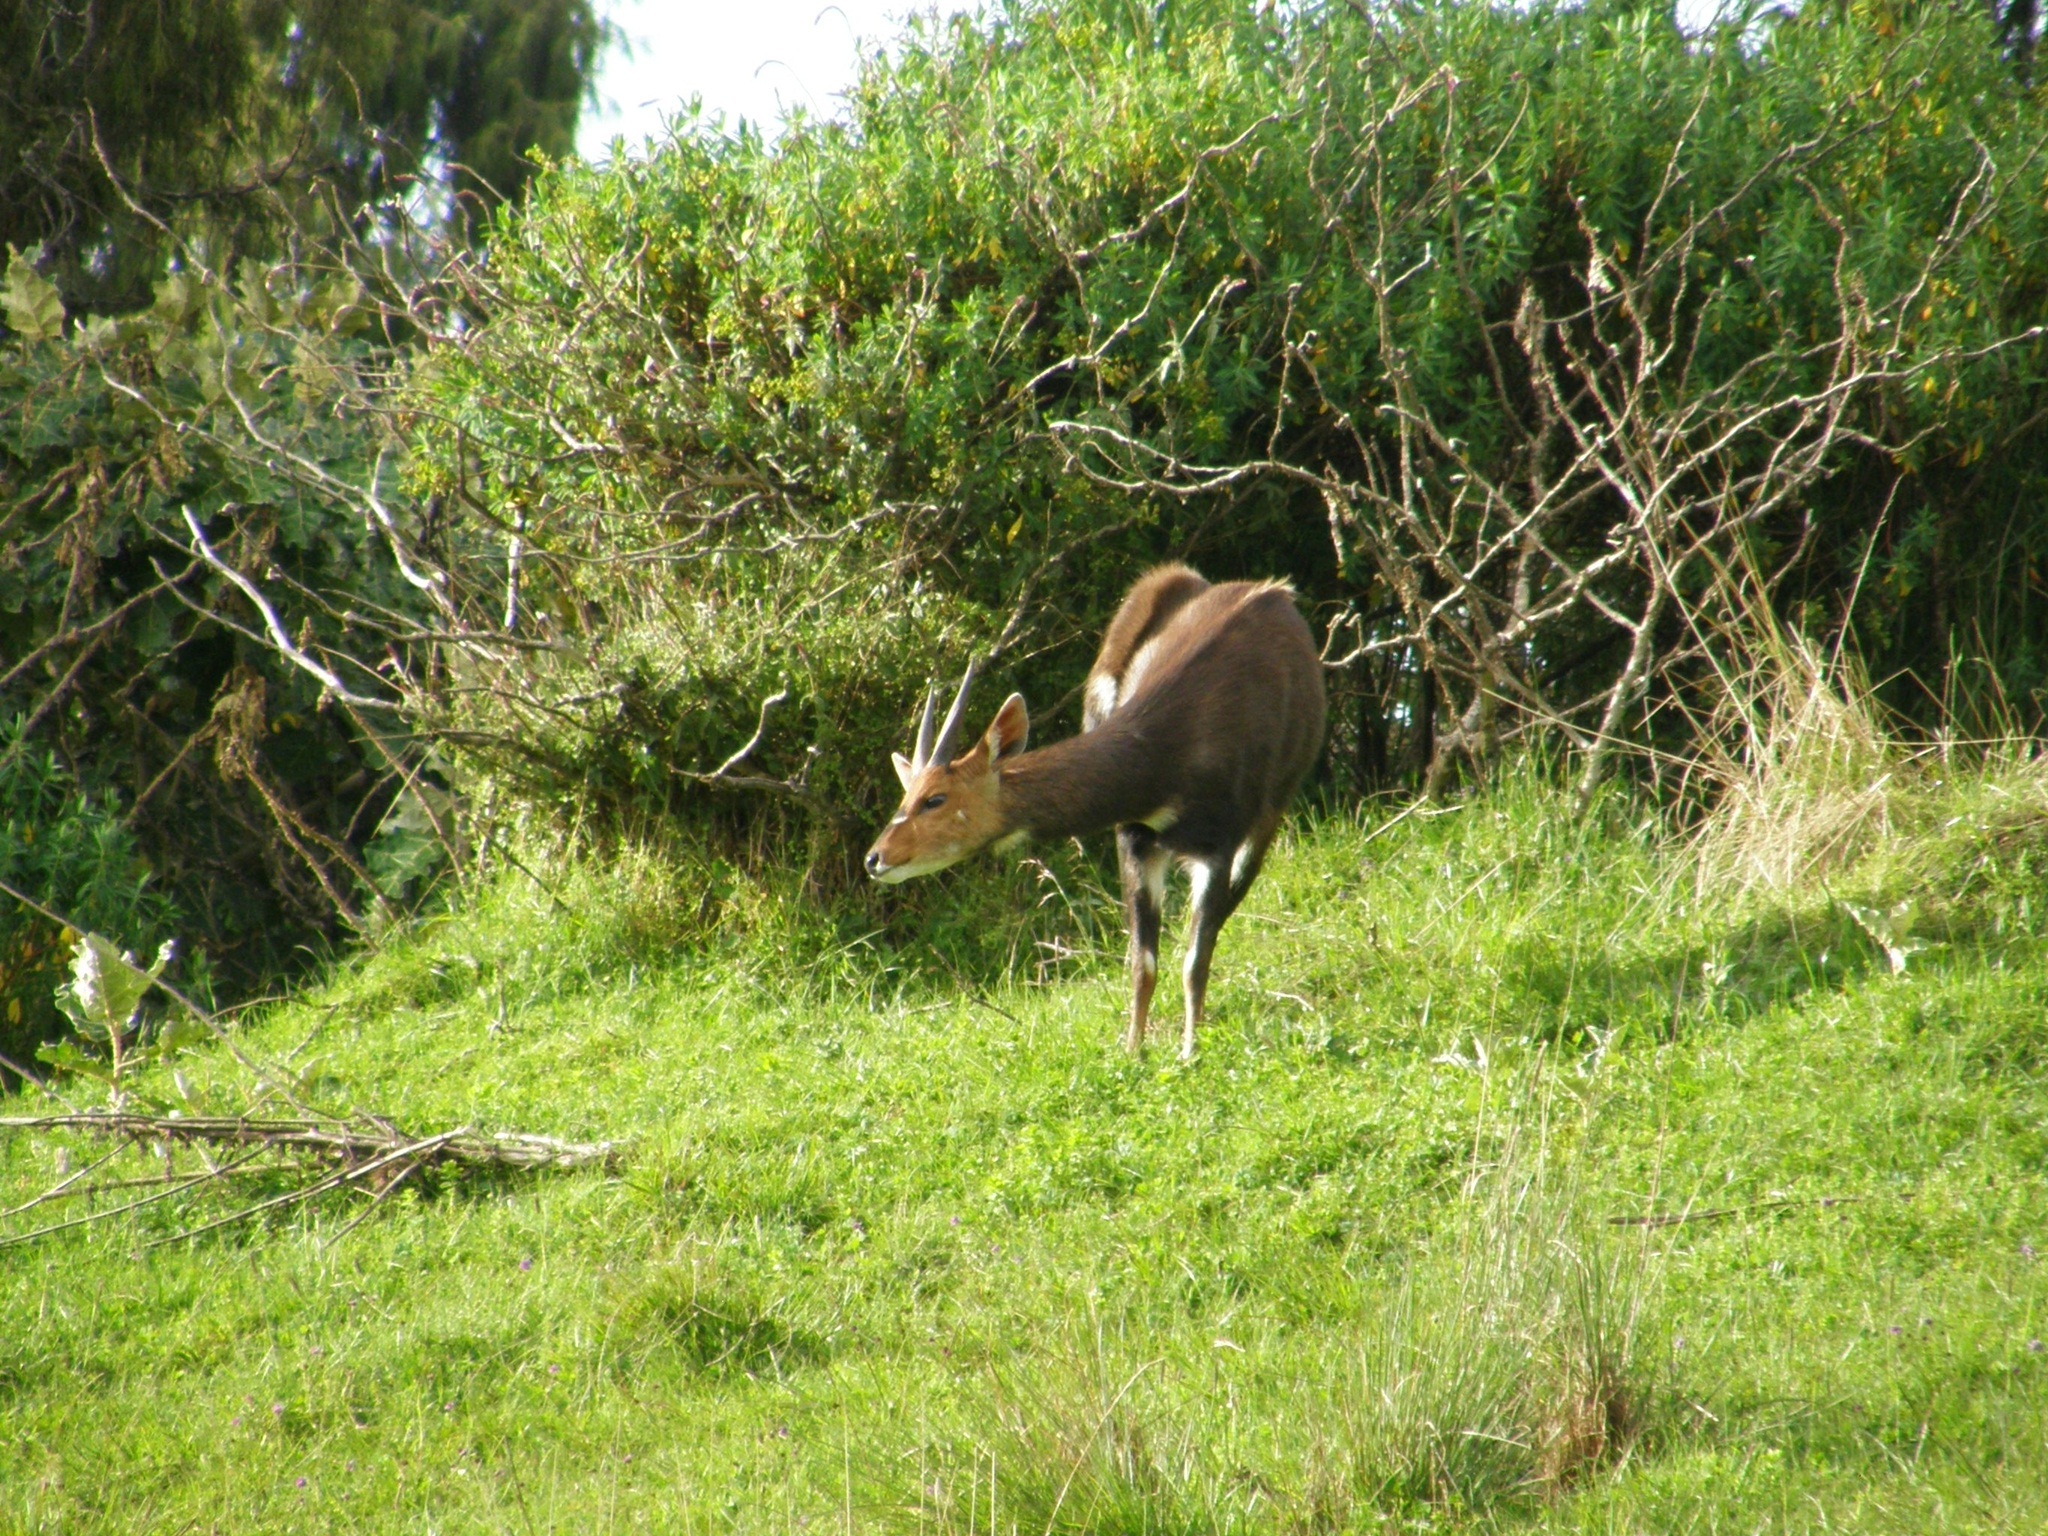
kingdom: Animalia
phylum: Chordata
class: Mammalia
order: Artiodactyla
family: Bovidae
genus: Tragelaphus
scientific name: Tragelaphus scriptus
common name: Bushbuck
